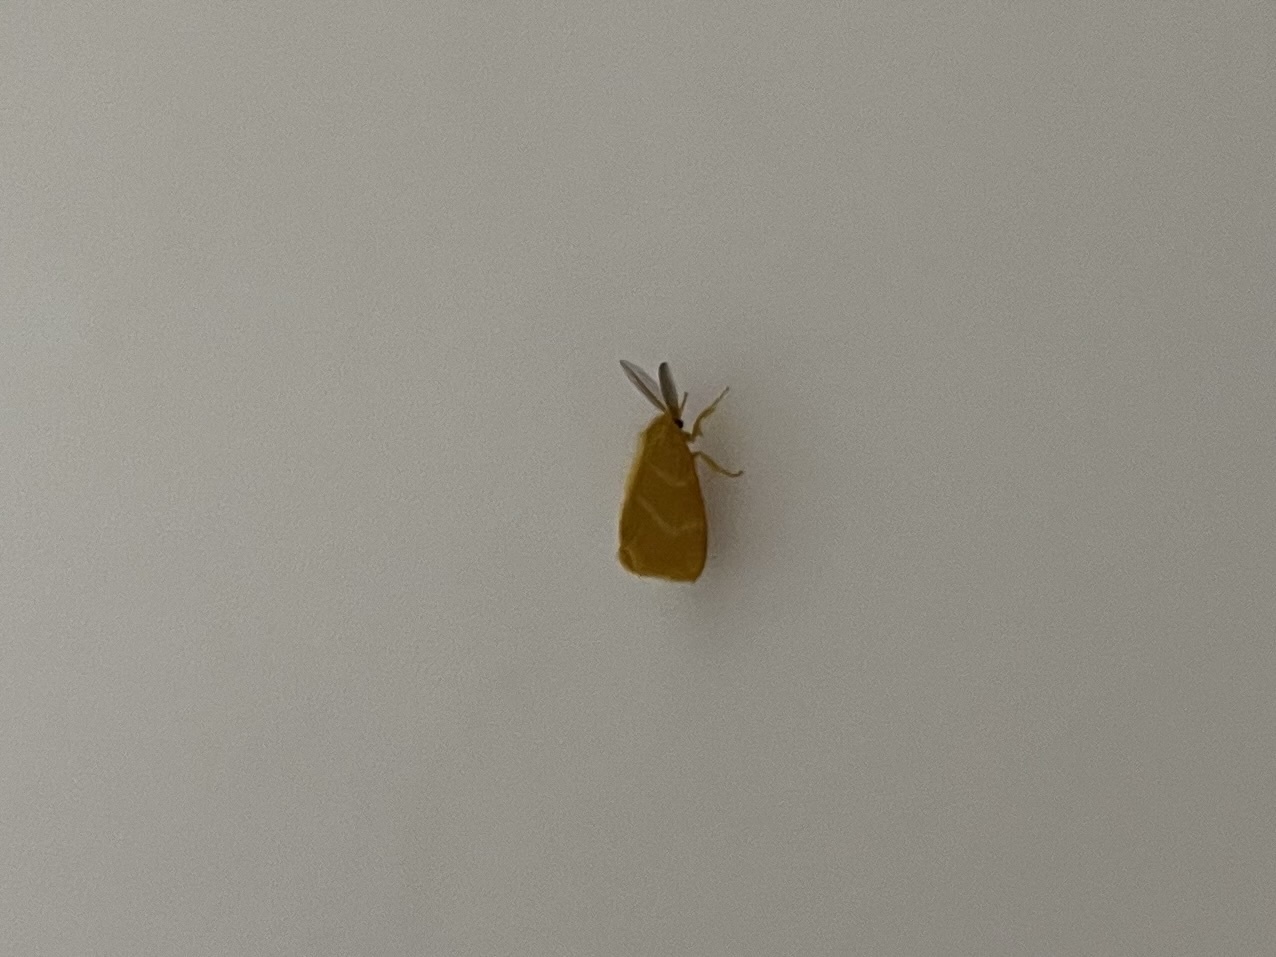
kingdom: Animalia
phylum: Arthropoda
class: Insecta
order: Lepidoptera
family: Erebidae
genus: Euproctis
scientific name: Euproctis lutea
